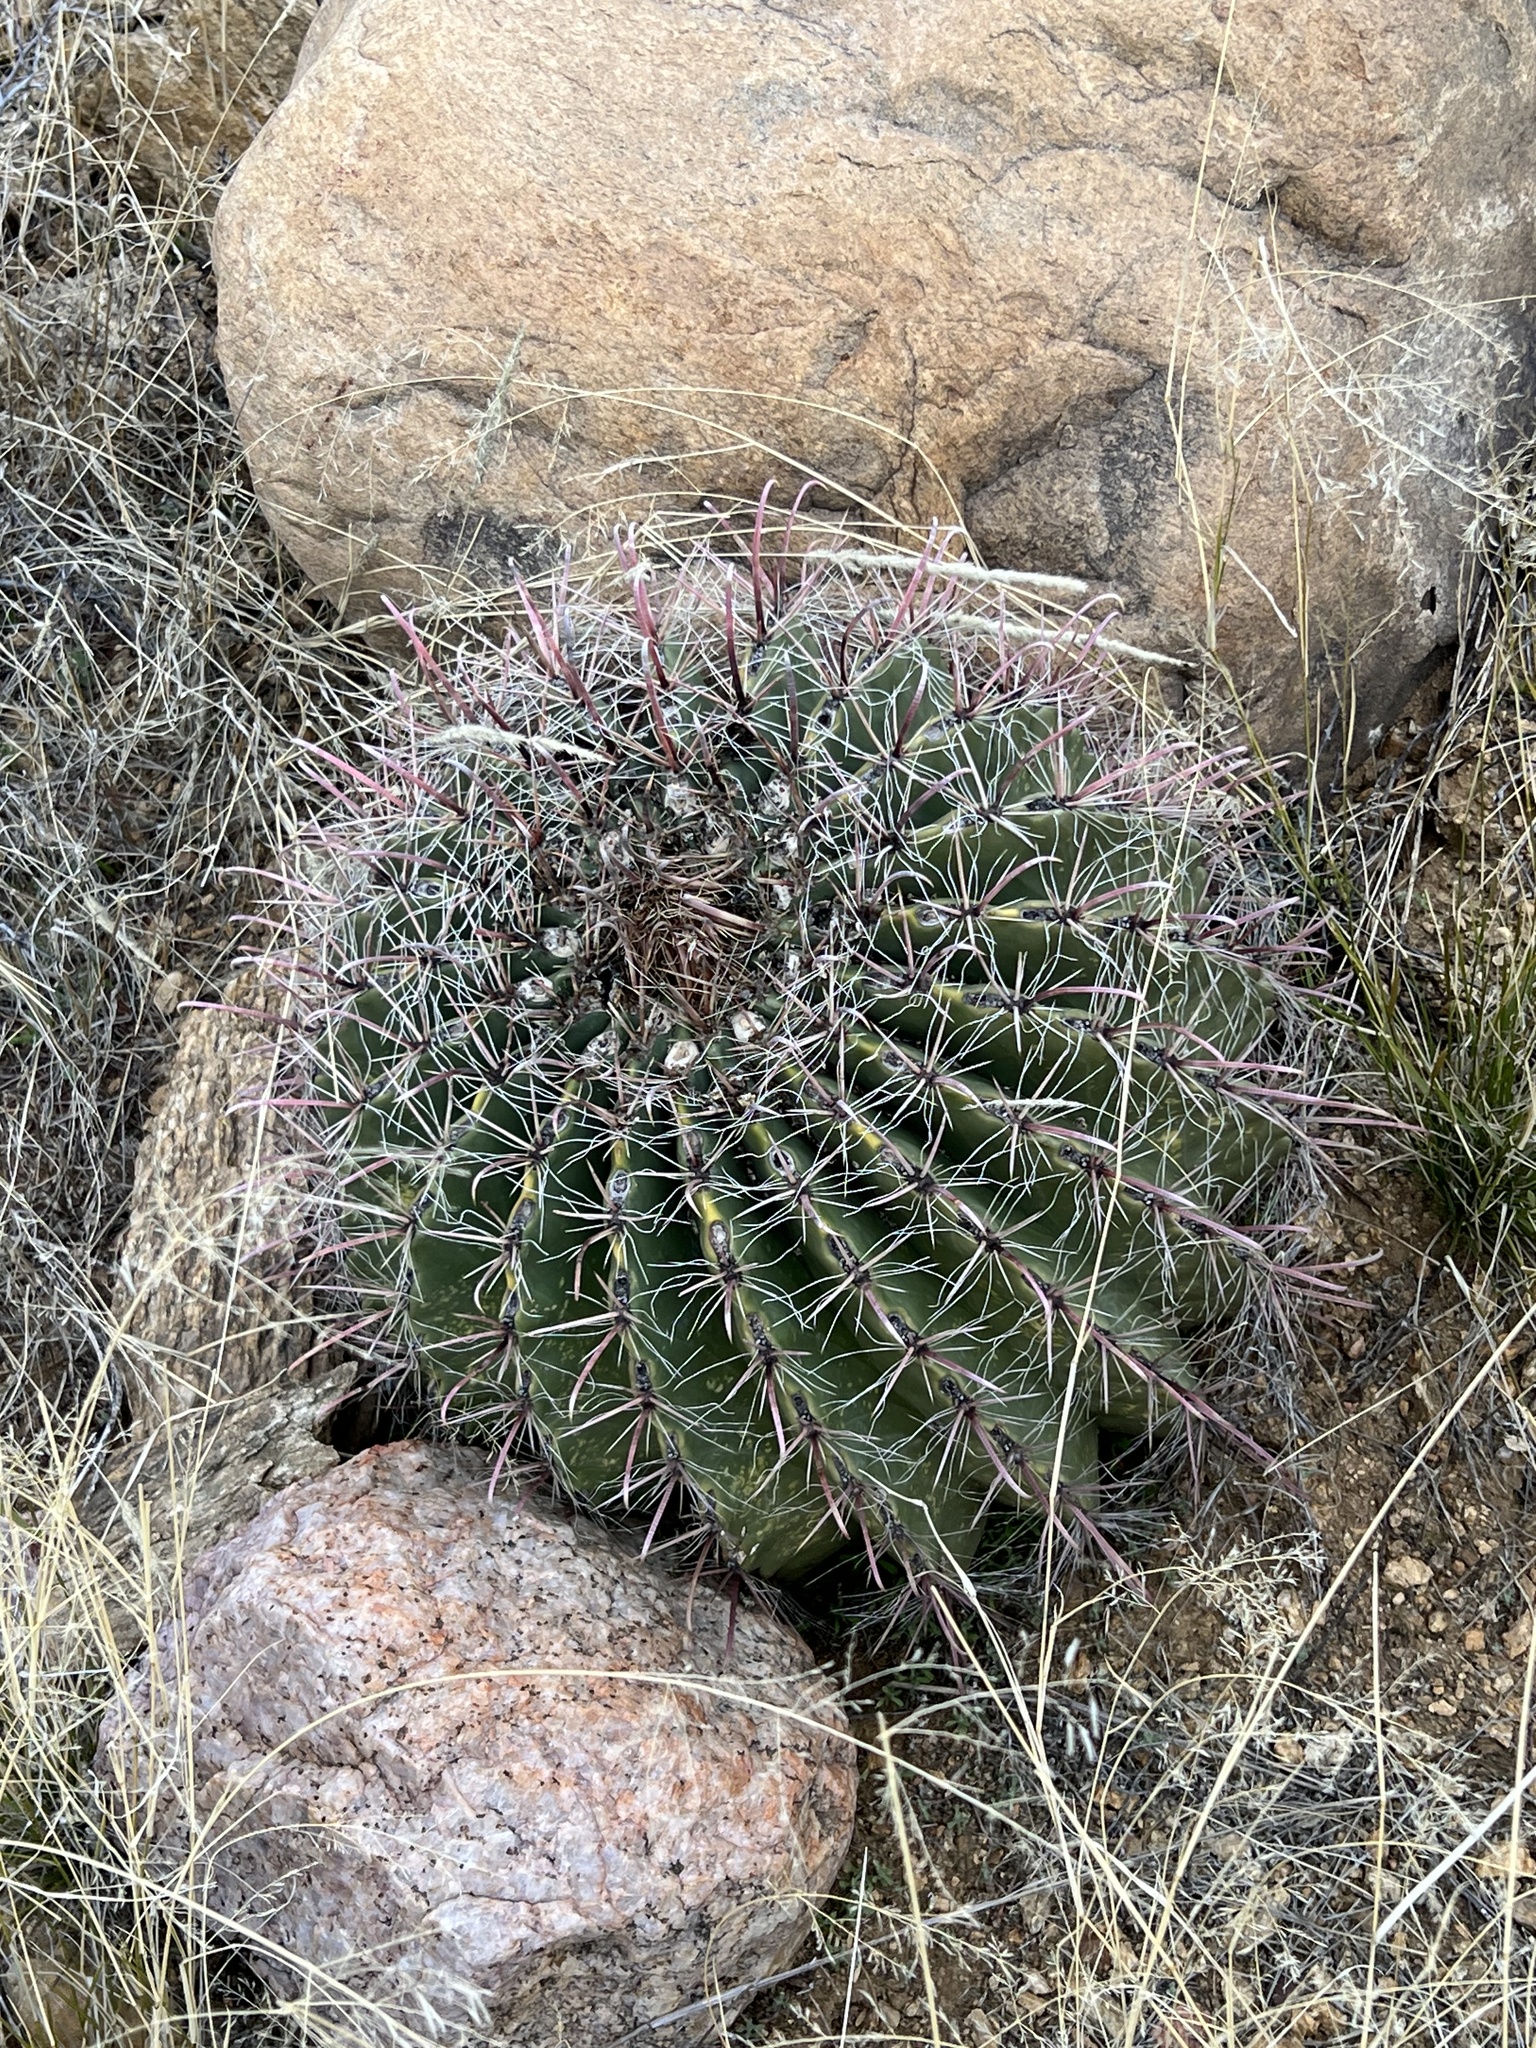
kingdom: Plantae
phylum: Tracheophyta
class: Magnoliopsida
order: Caryophyllales
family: Cactaceae
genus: Ferocactus
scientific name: Ferocactus wislizeni
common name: Candy barrel cactus
